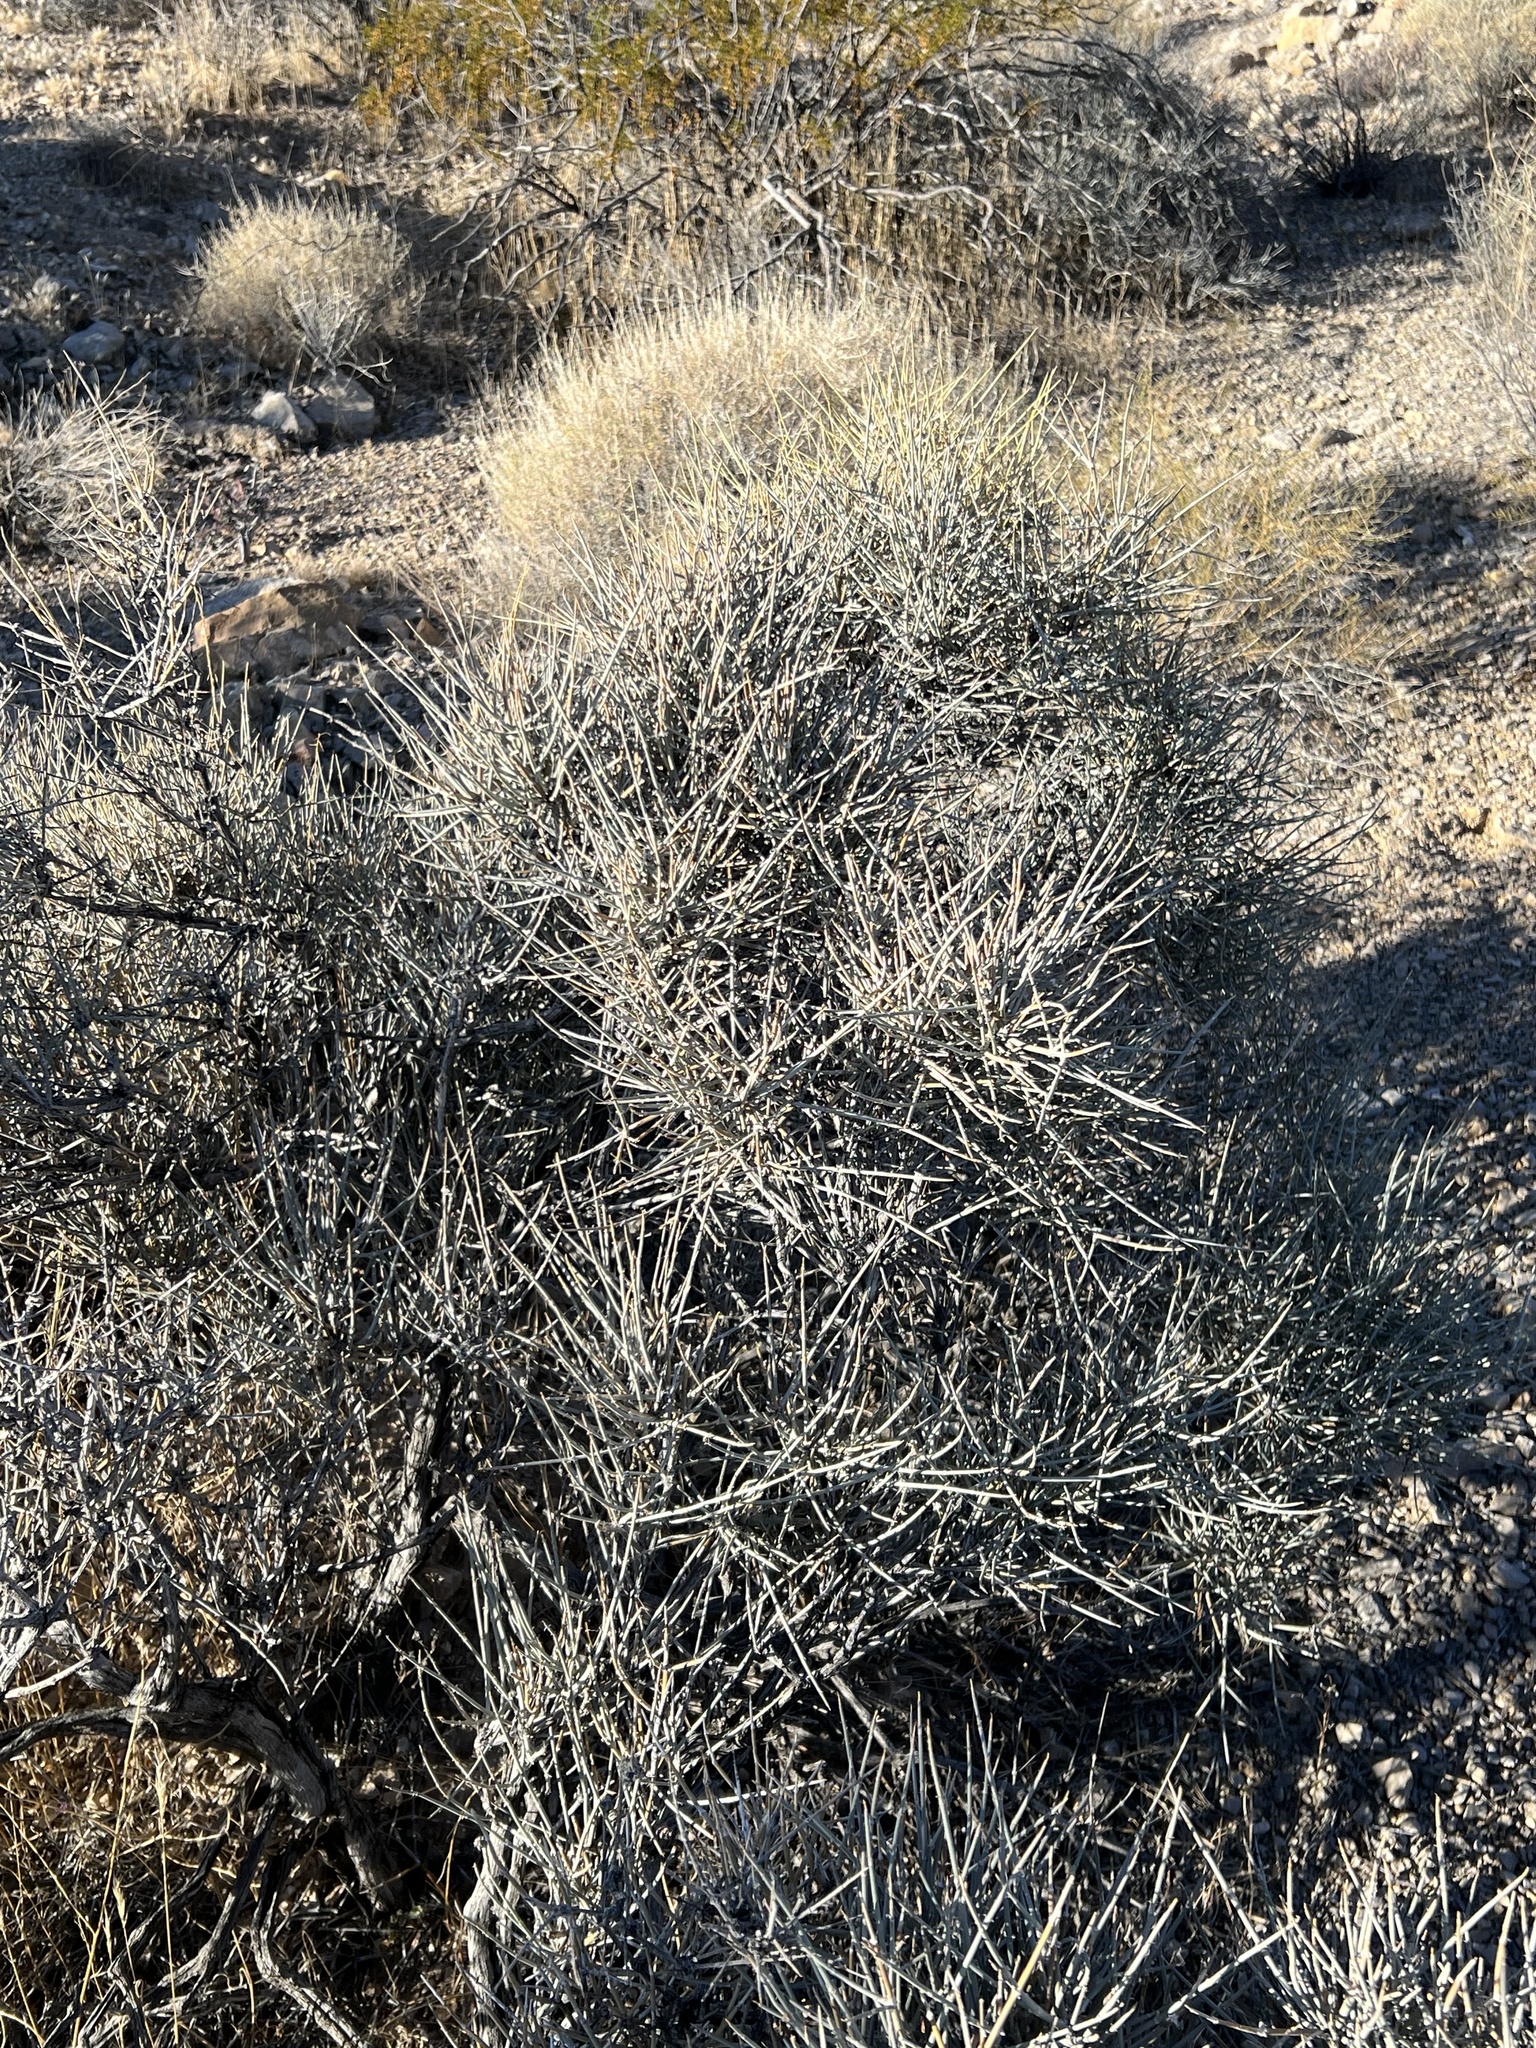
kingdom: Plantae
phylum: Tracheophyta
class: Gnetopsida
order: Ephedrales
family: Ephedraceae
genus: Ephedra
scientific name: Ephedra nevadensis
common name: Gray ephedra
